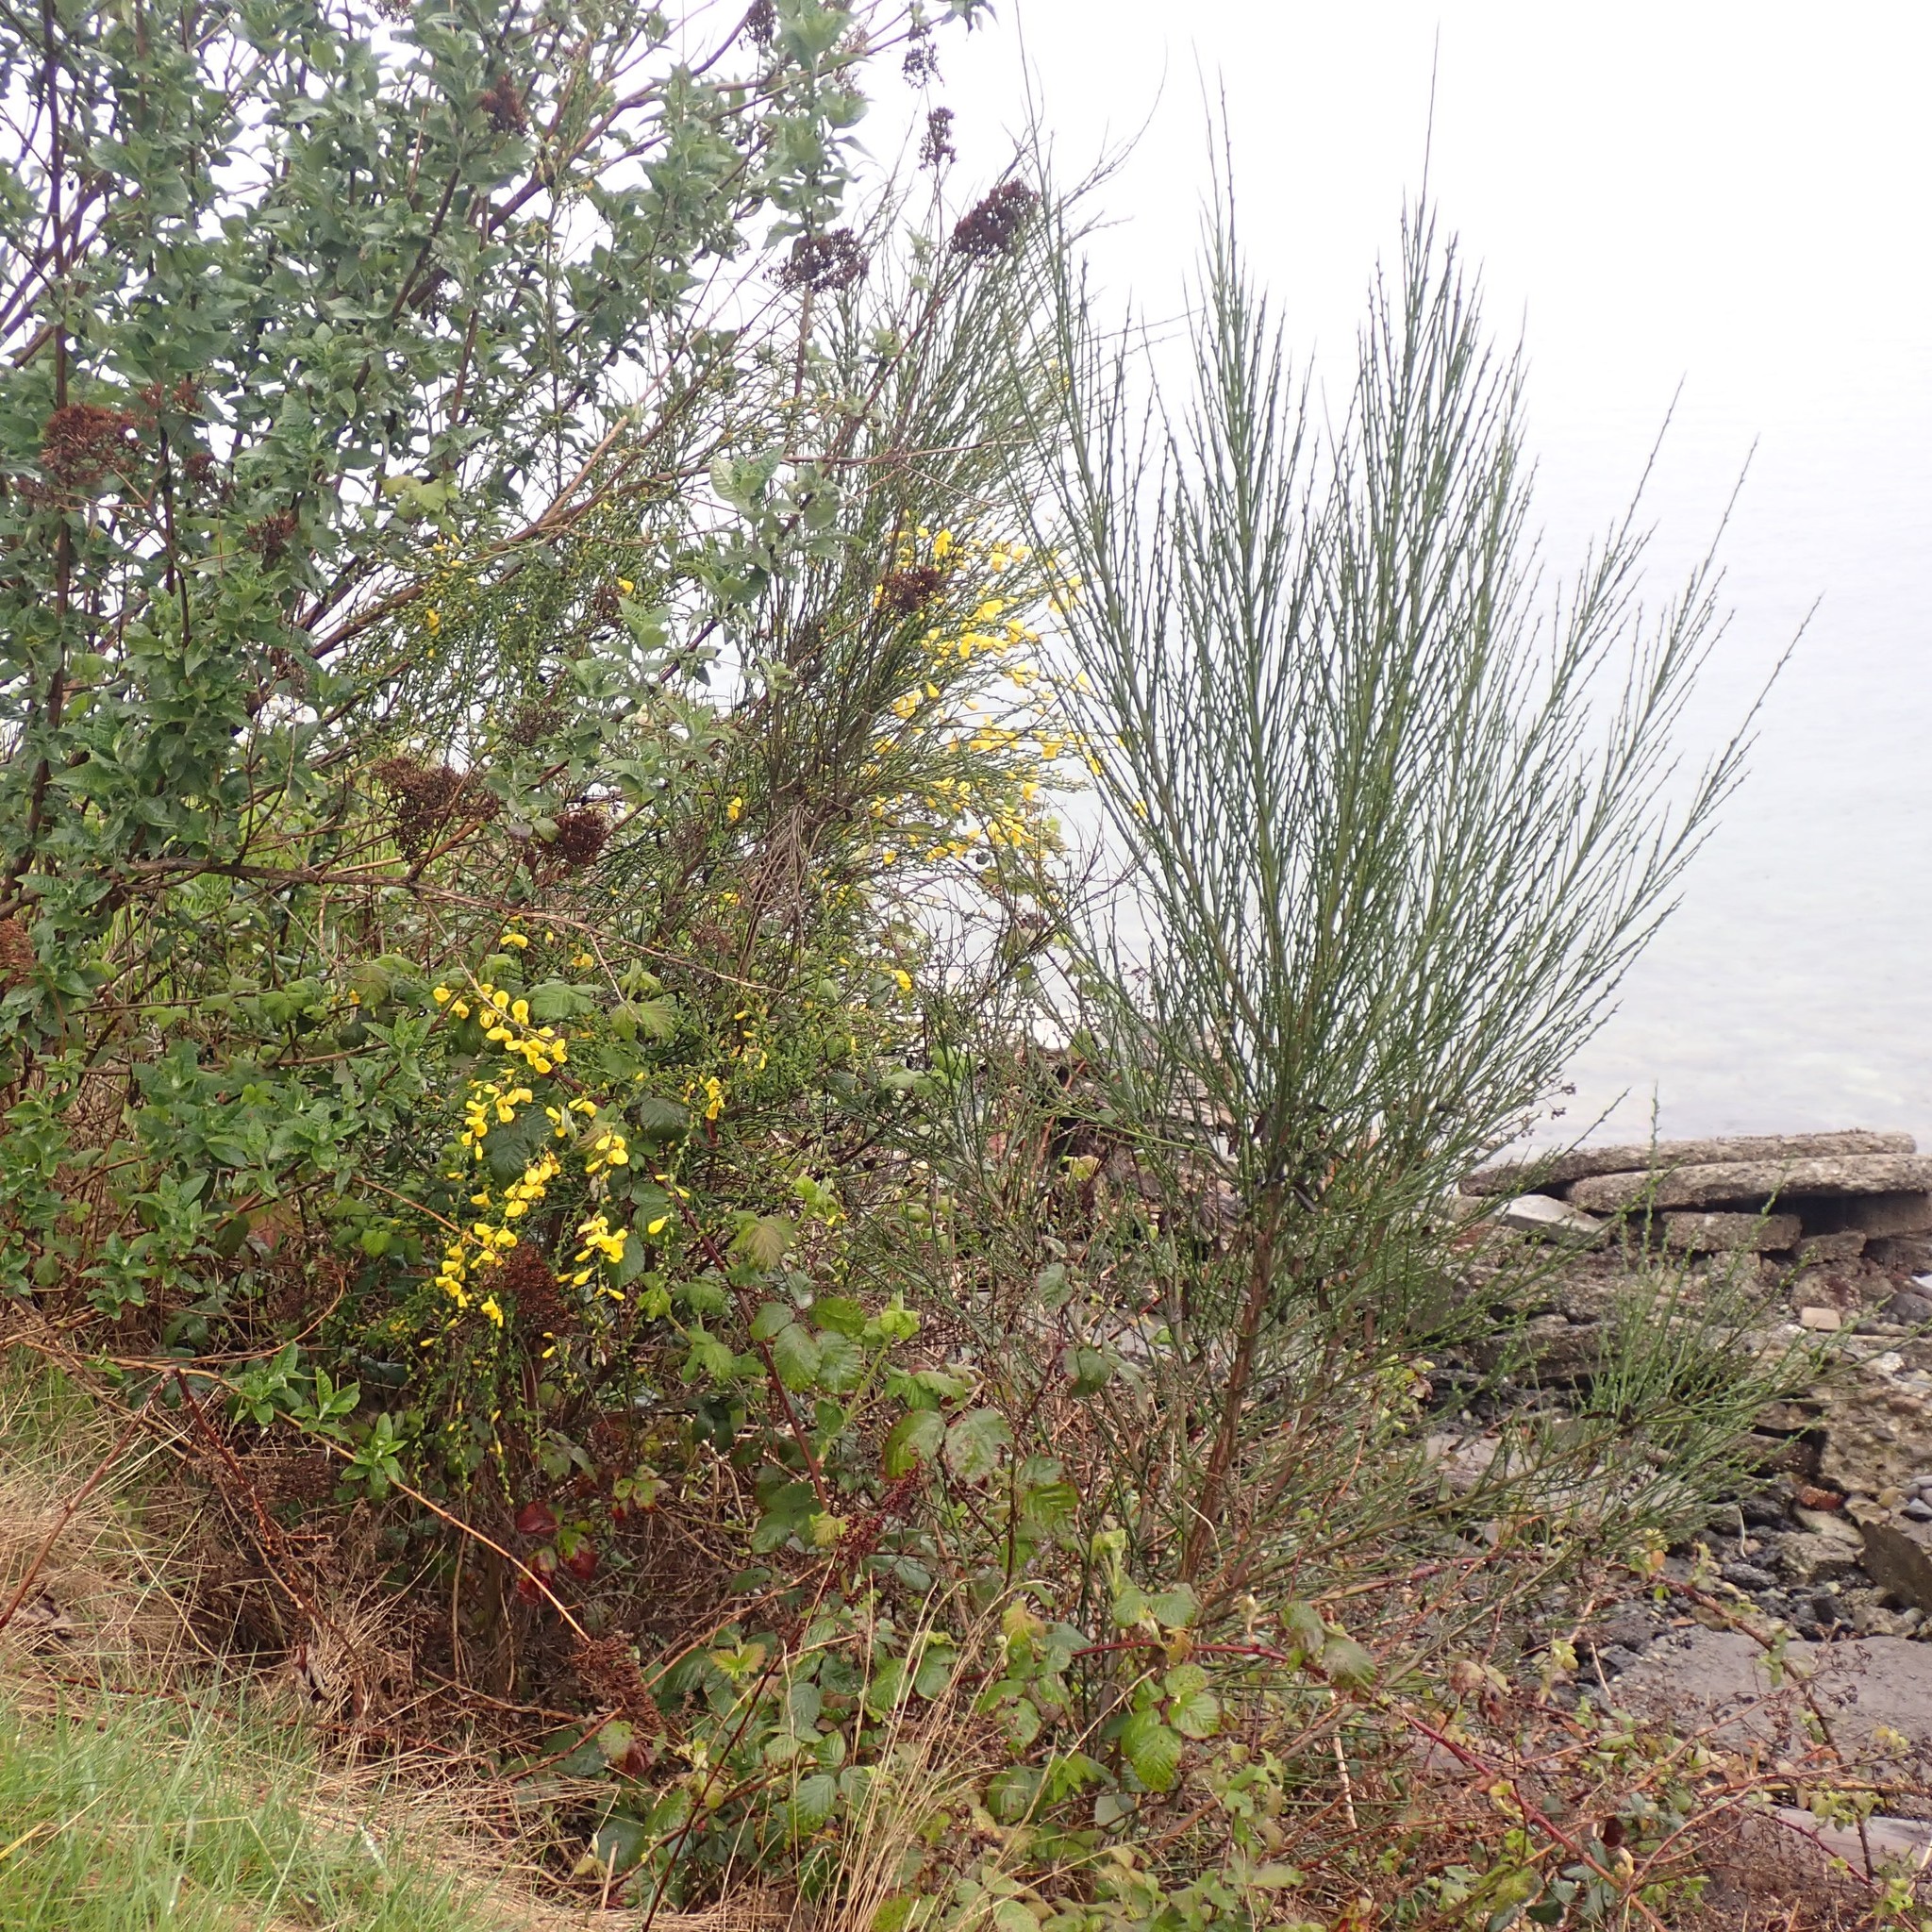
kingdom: Plantae
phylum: Tracheophyta
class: Magnoliopsida
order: Fabales
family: Fabaceae
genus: Cytisus
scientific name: Cytisus scoparius
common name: Scotch broom
